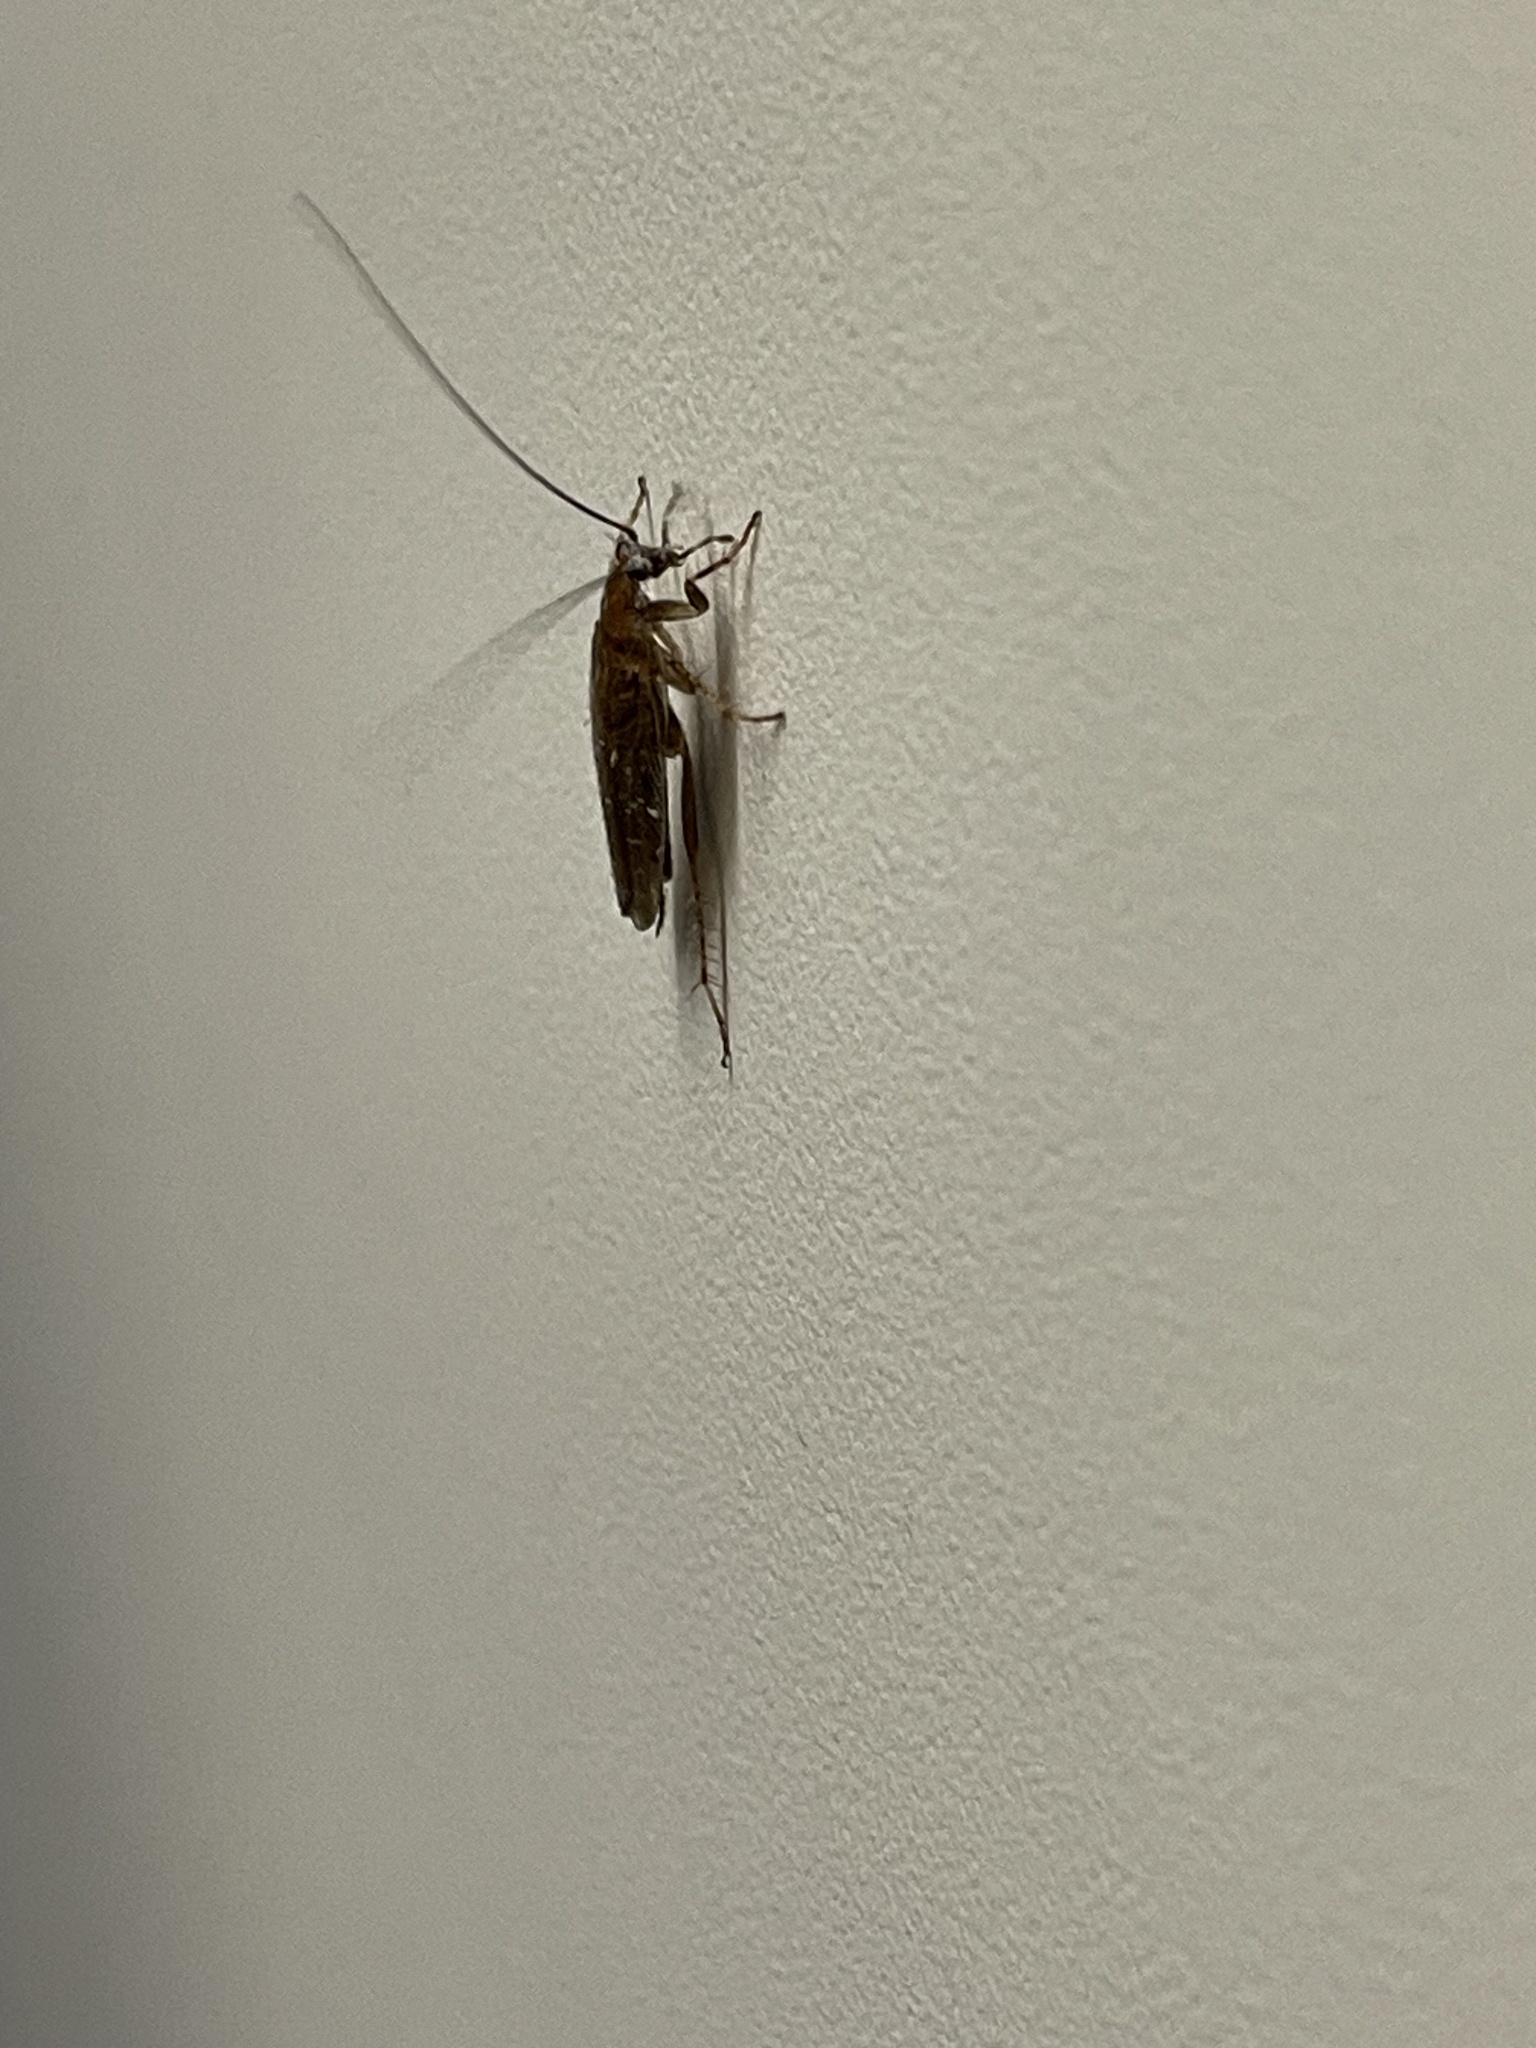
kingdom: Animalia
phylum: Arthropoda
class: Insecta
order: Blattodea
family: Ectobiidae
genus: Ectobius
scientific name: Ectobius vittiventris
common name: Garden cockroach
